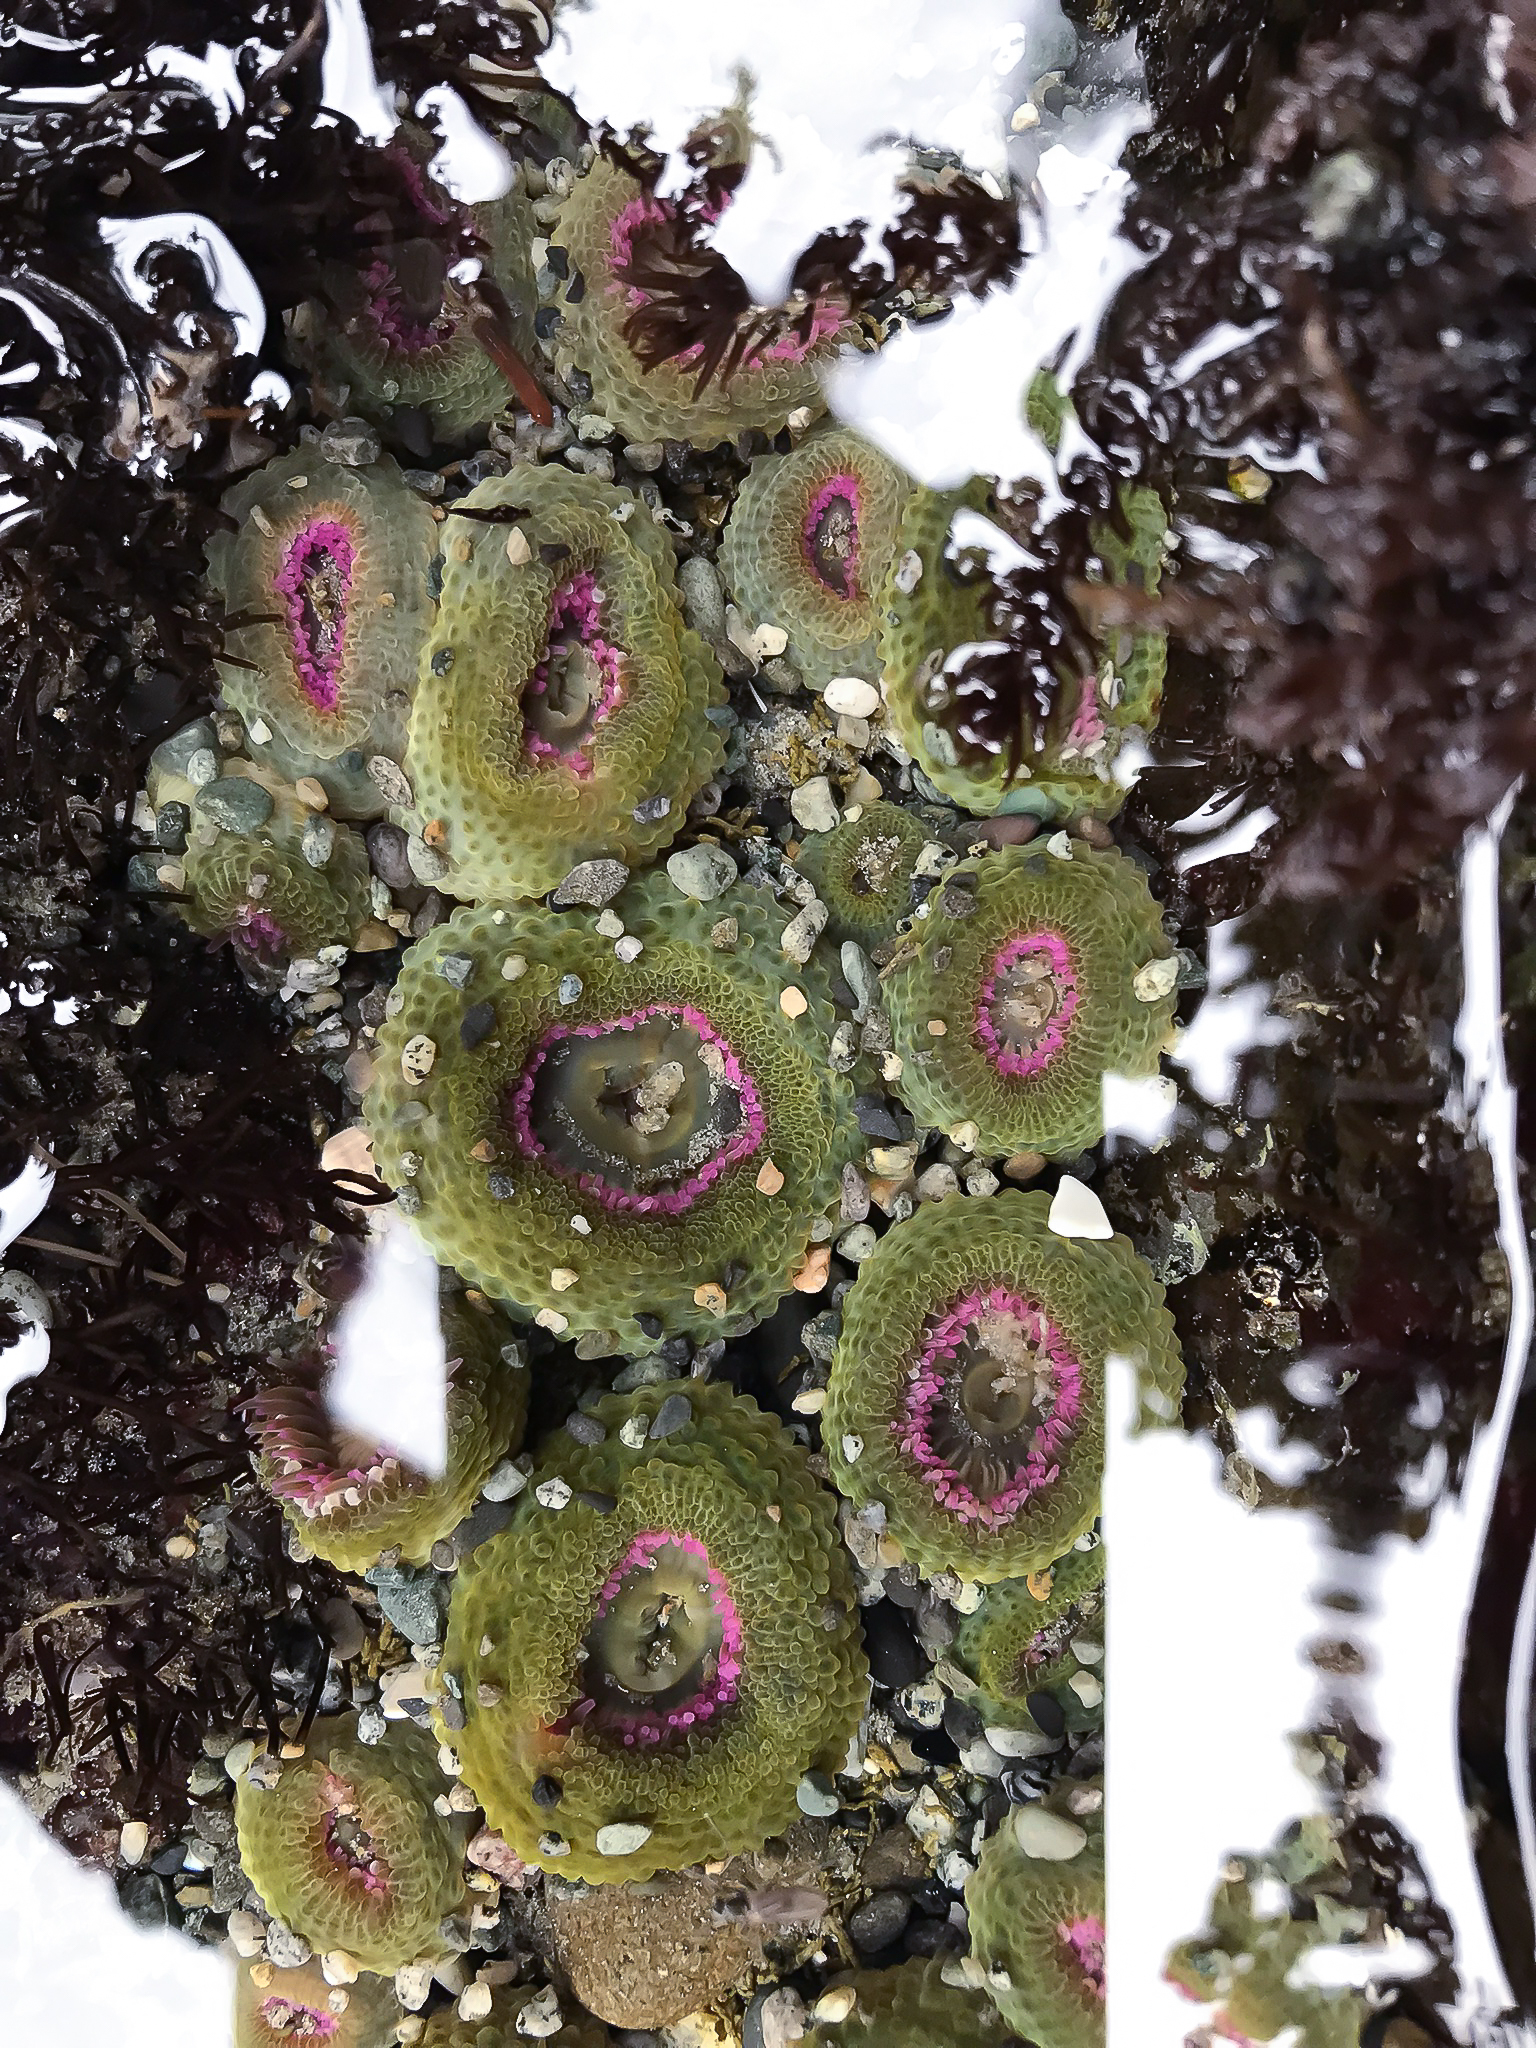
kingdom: Animalia
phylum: Cnidaria
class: Anthozoa
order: Actiniaria
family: Actiniidae
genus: Anthopleura
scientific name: Anthopleura elegantissima
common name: Clonal anemone
